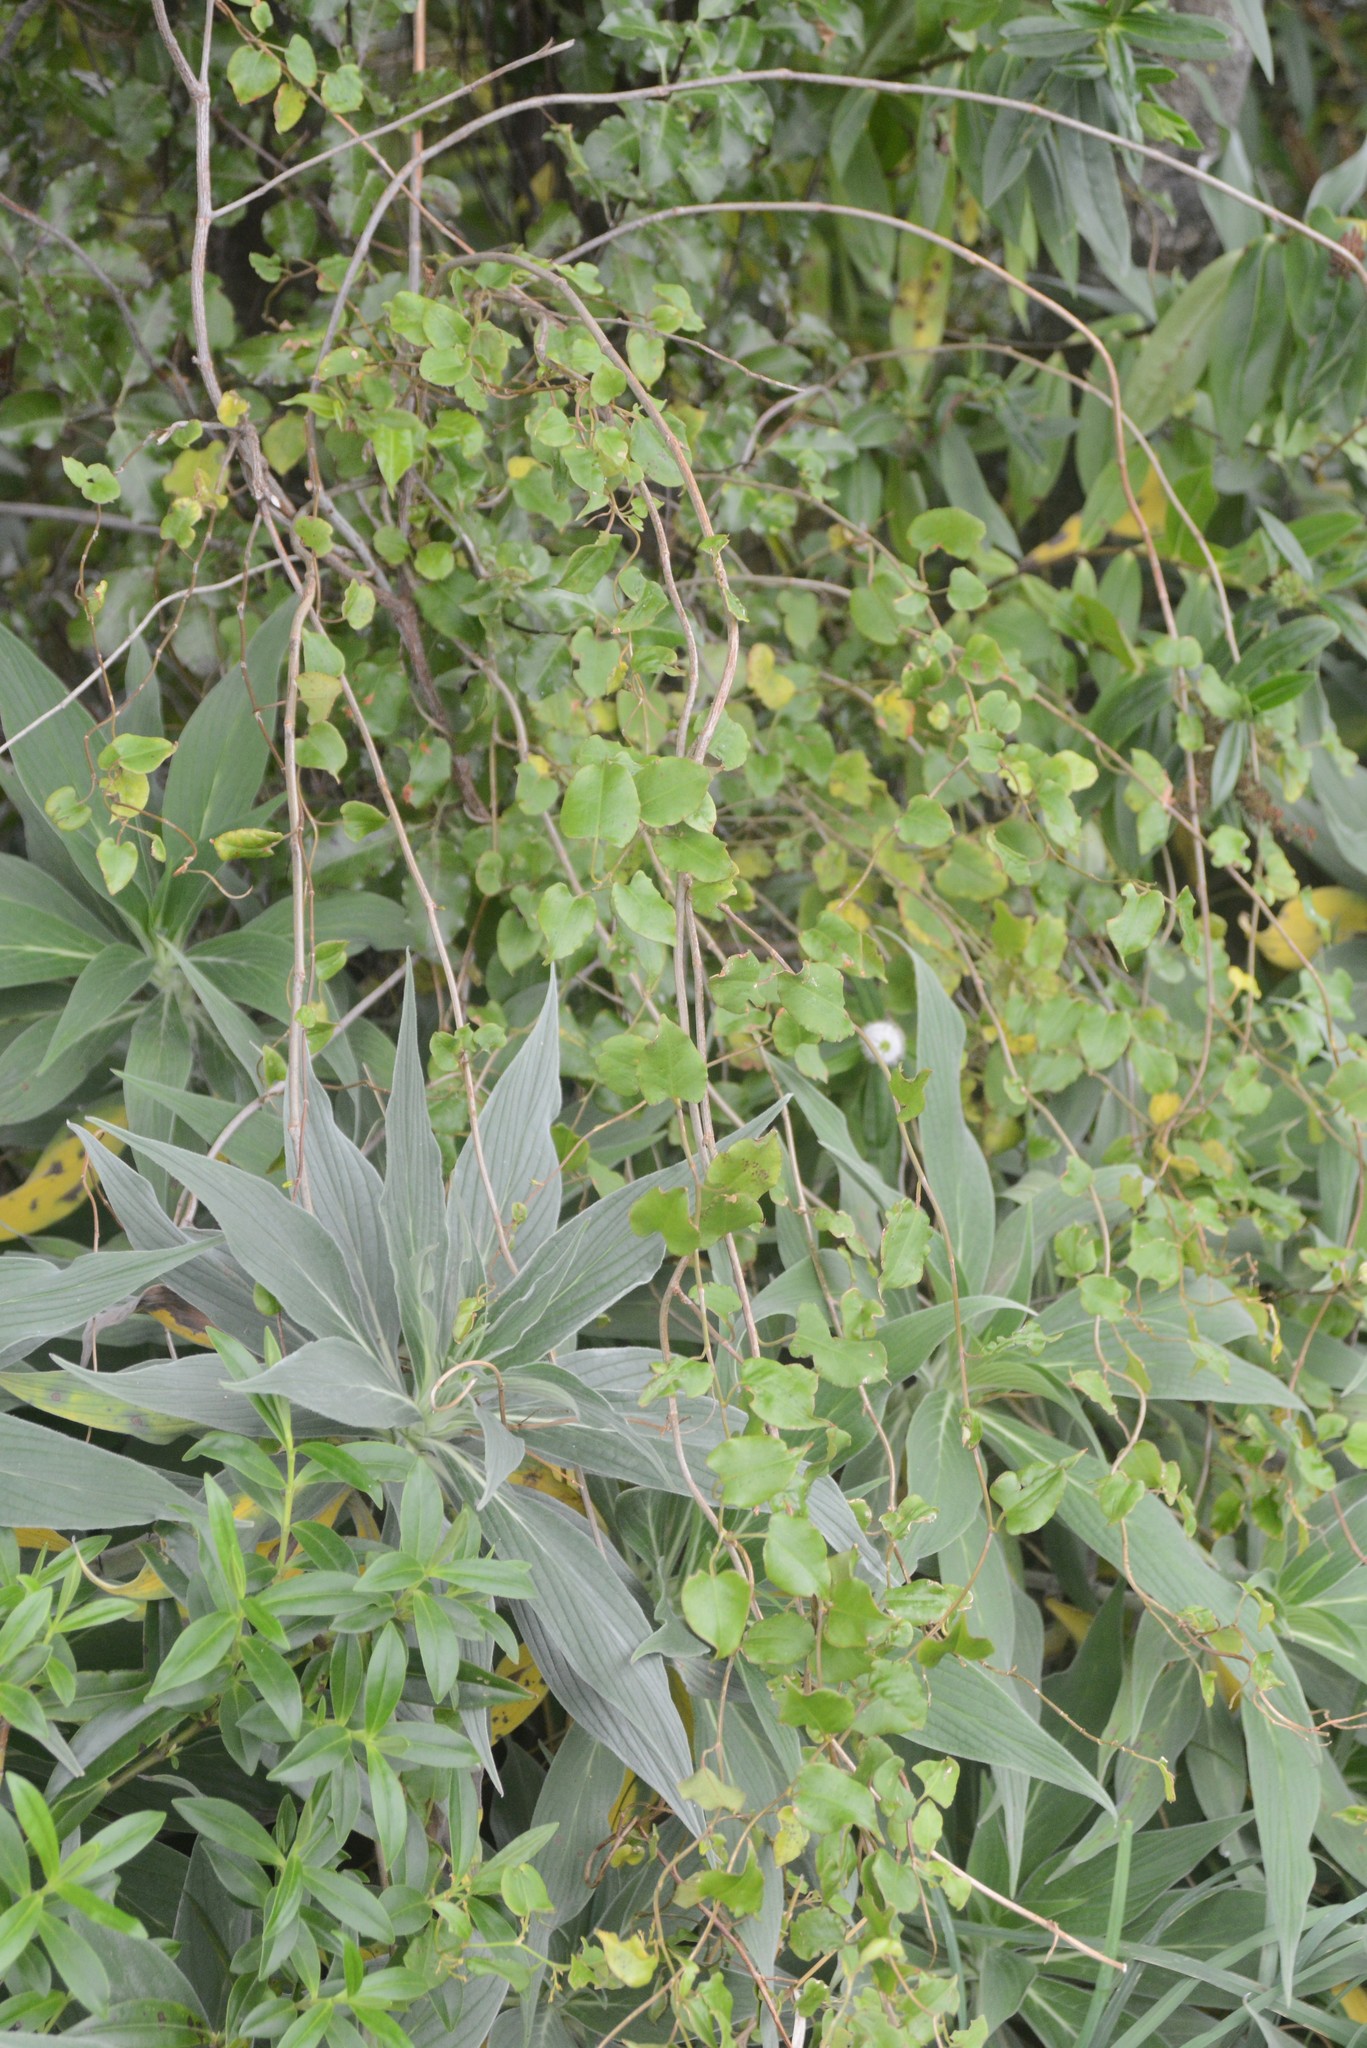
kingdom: Plantae
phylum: Tracheophyta
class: Magnoliopsida
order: Caryophyllales
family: Polygonaceae
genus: Muehlenbeckia
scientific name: Muehlenbeckia australis
